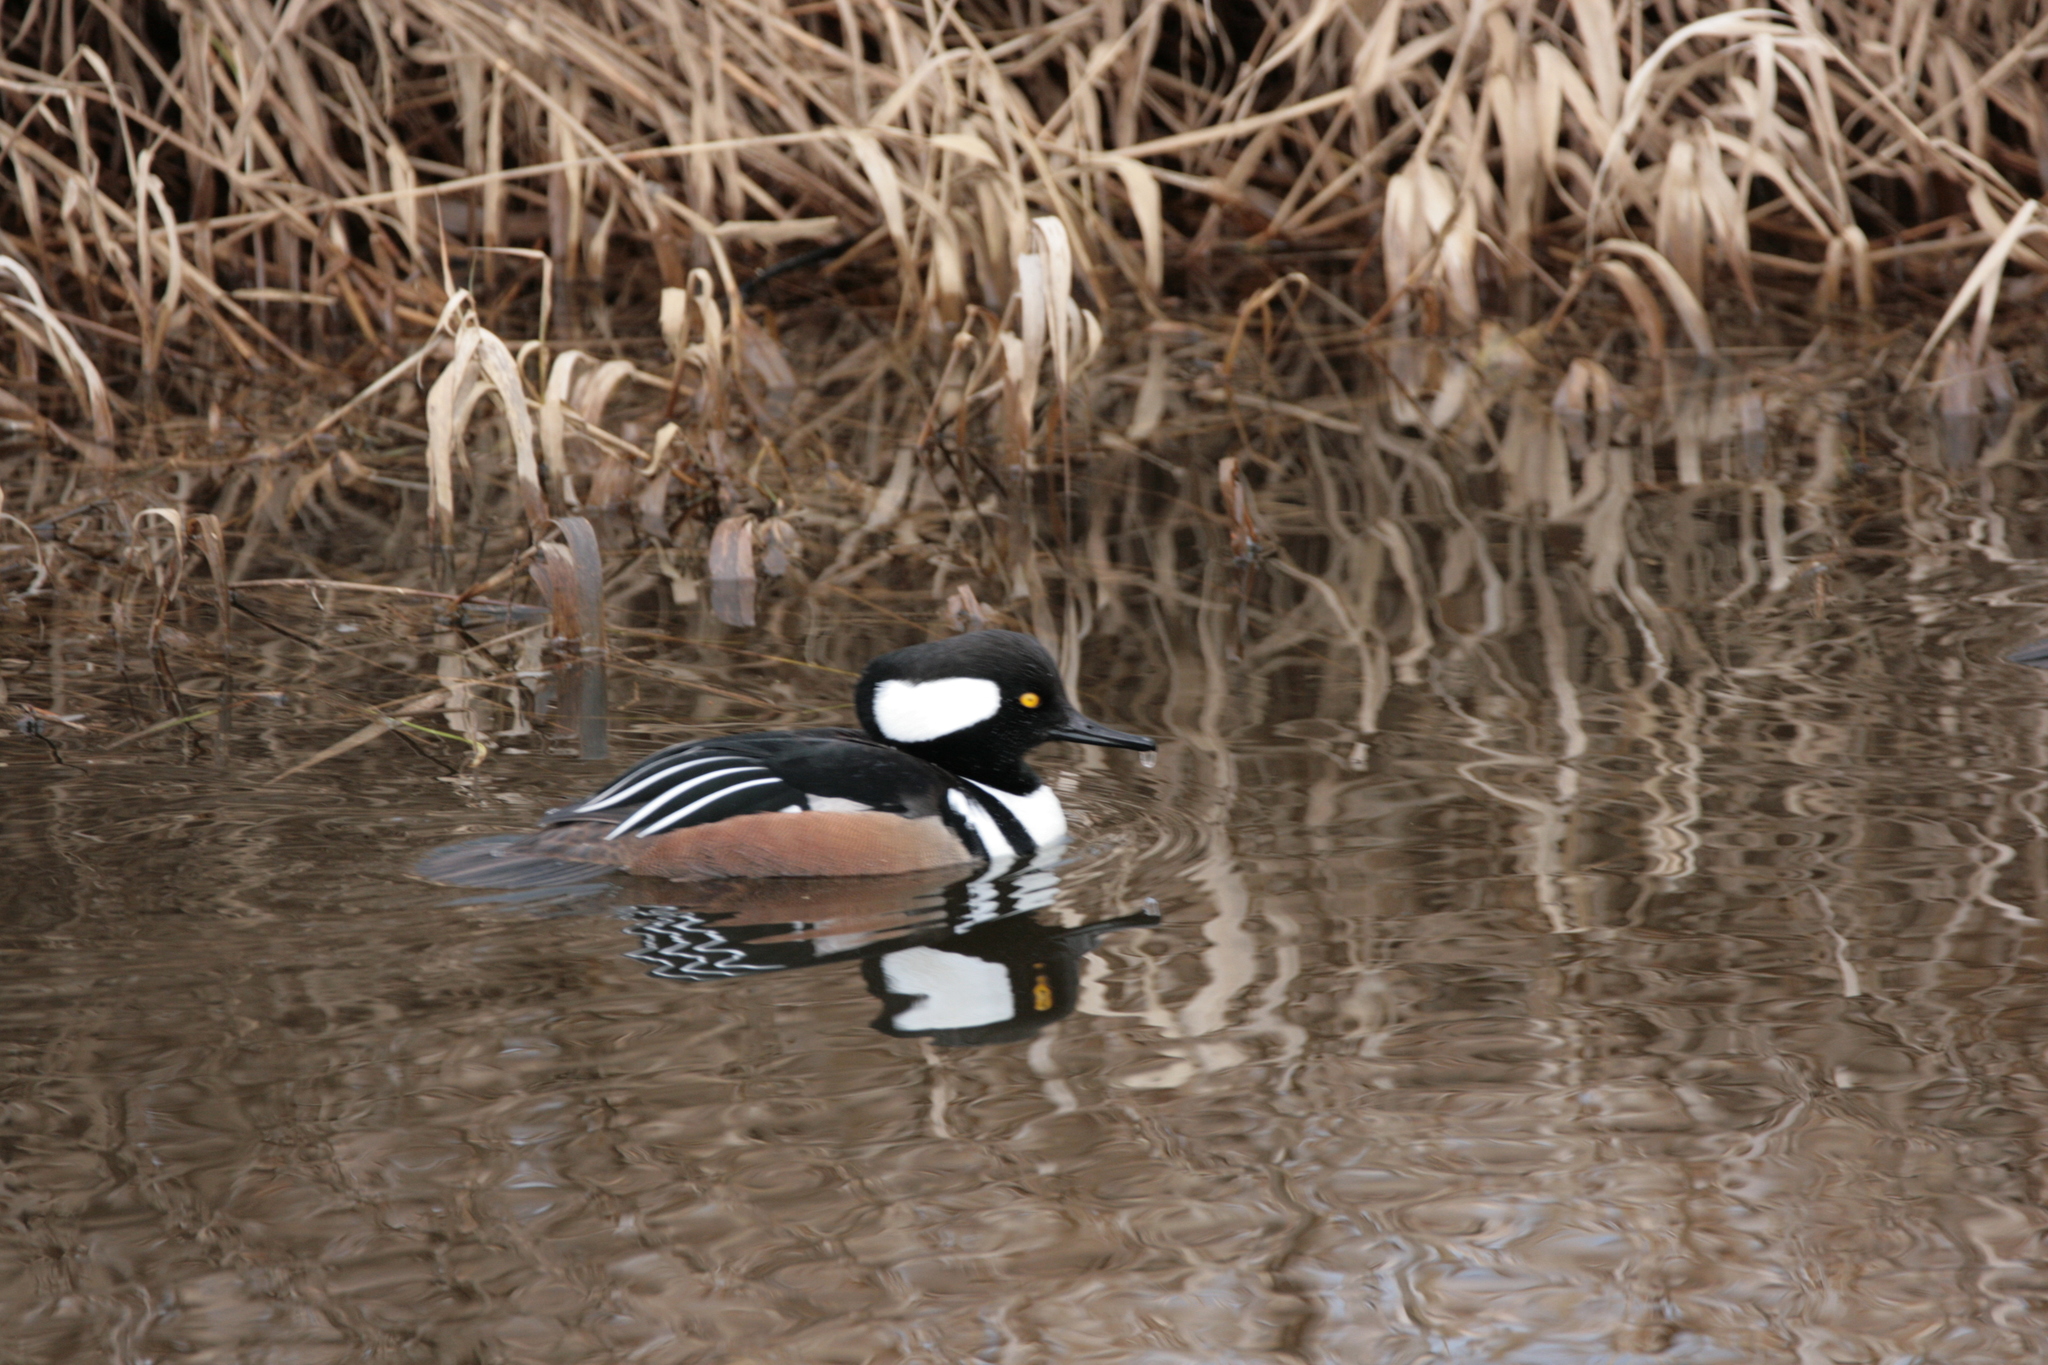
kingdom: Animalia
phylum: Chordata
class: Aves
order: Anseriformes
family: Anatidae
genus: Lophodytes
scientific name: Lophodytes cucullatus
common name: Hooded merganser
